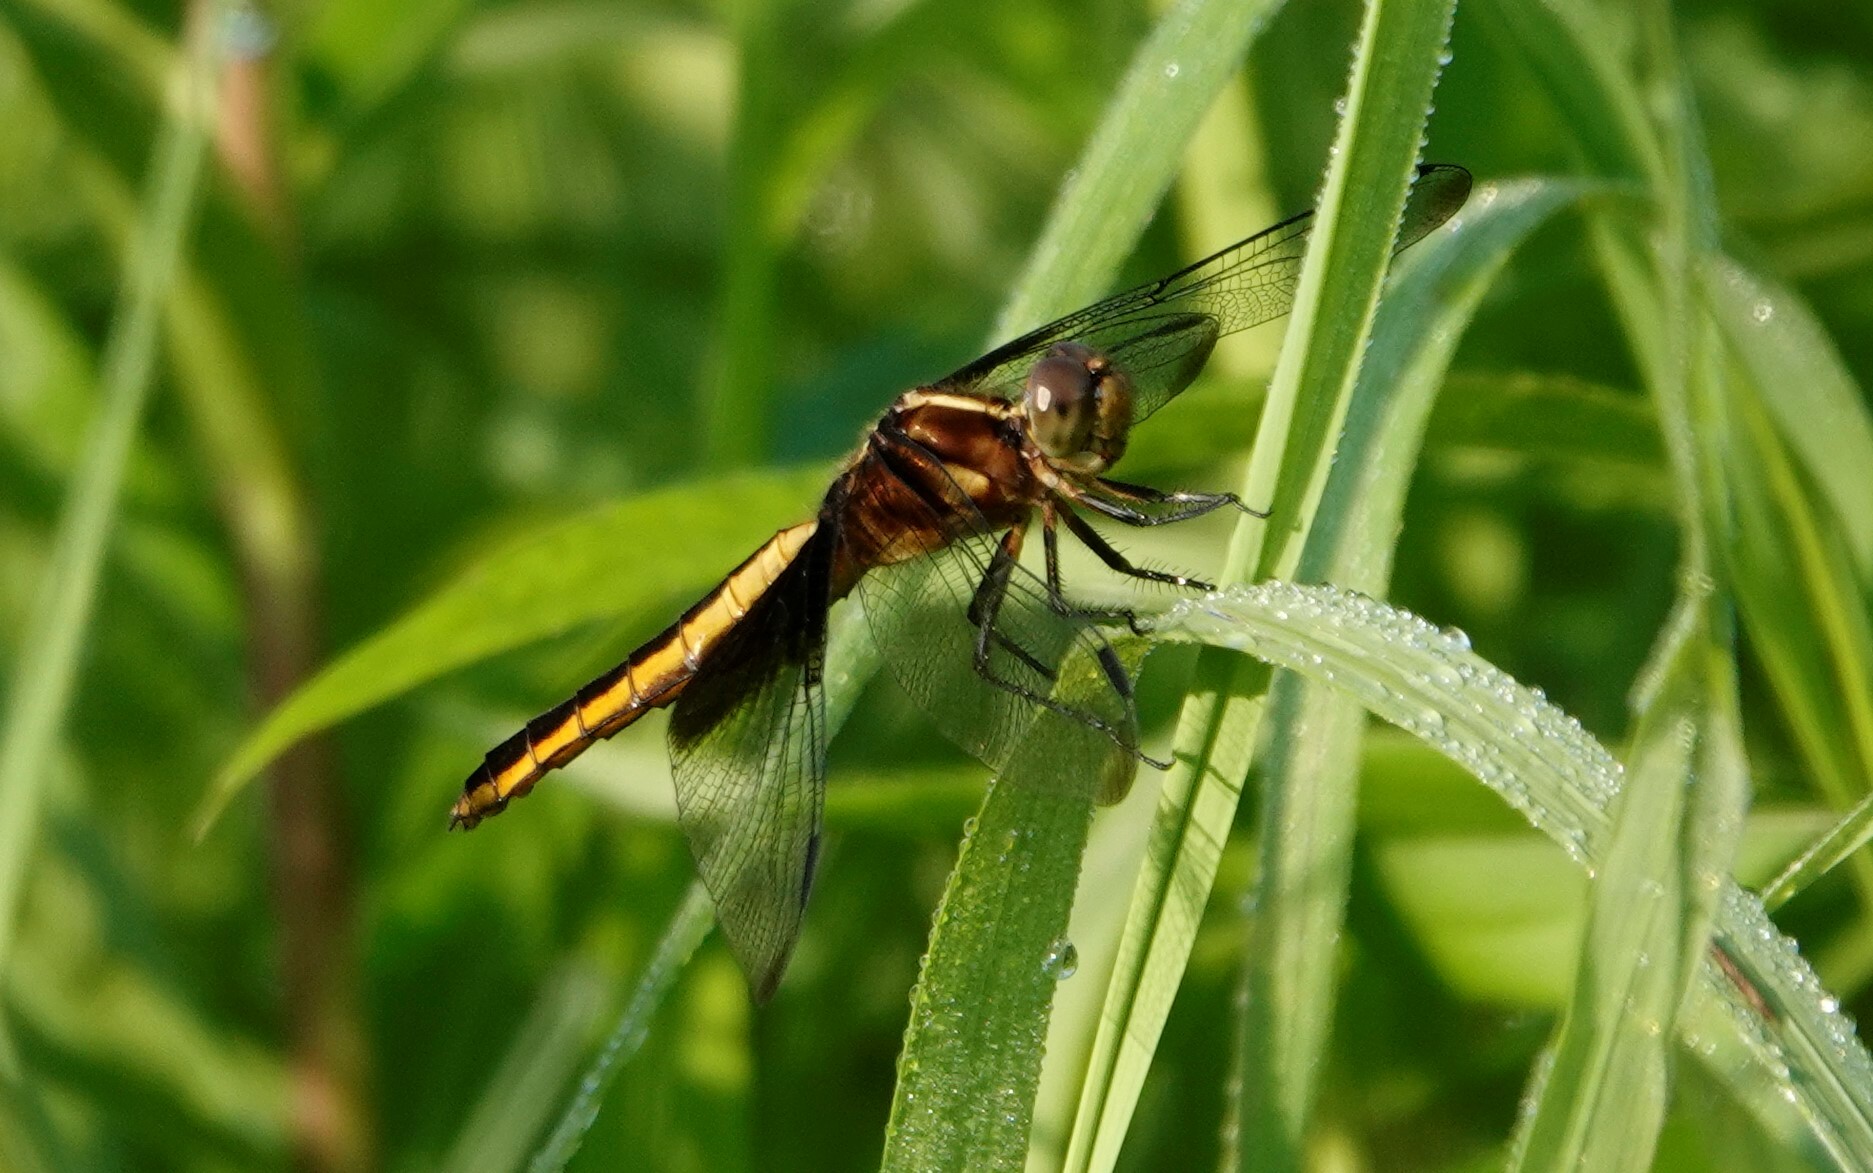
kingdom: Animalia
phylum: Arthropoda
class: Insecta
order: Odonata
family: Libellulidae
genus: Libellula
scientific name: Libellula luctuosa
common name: Widow skimmer
